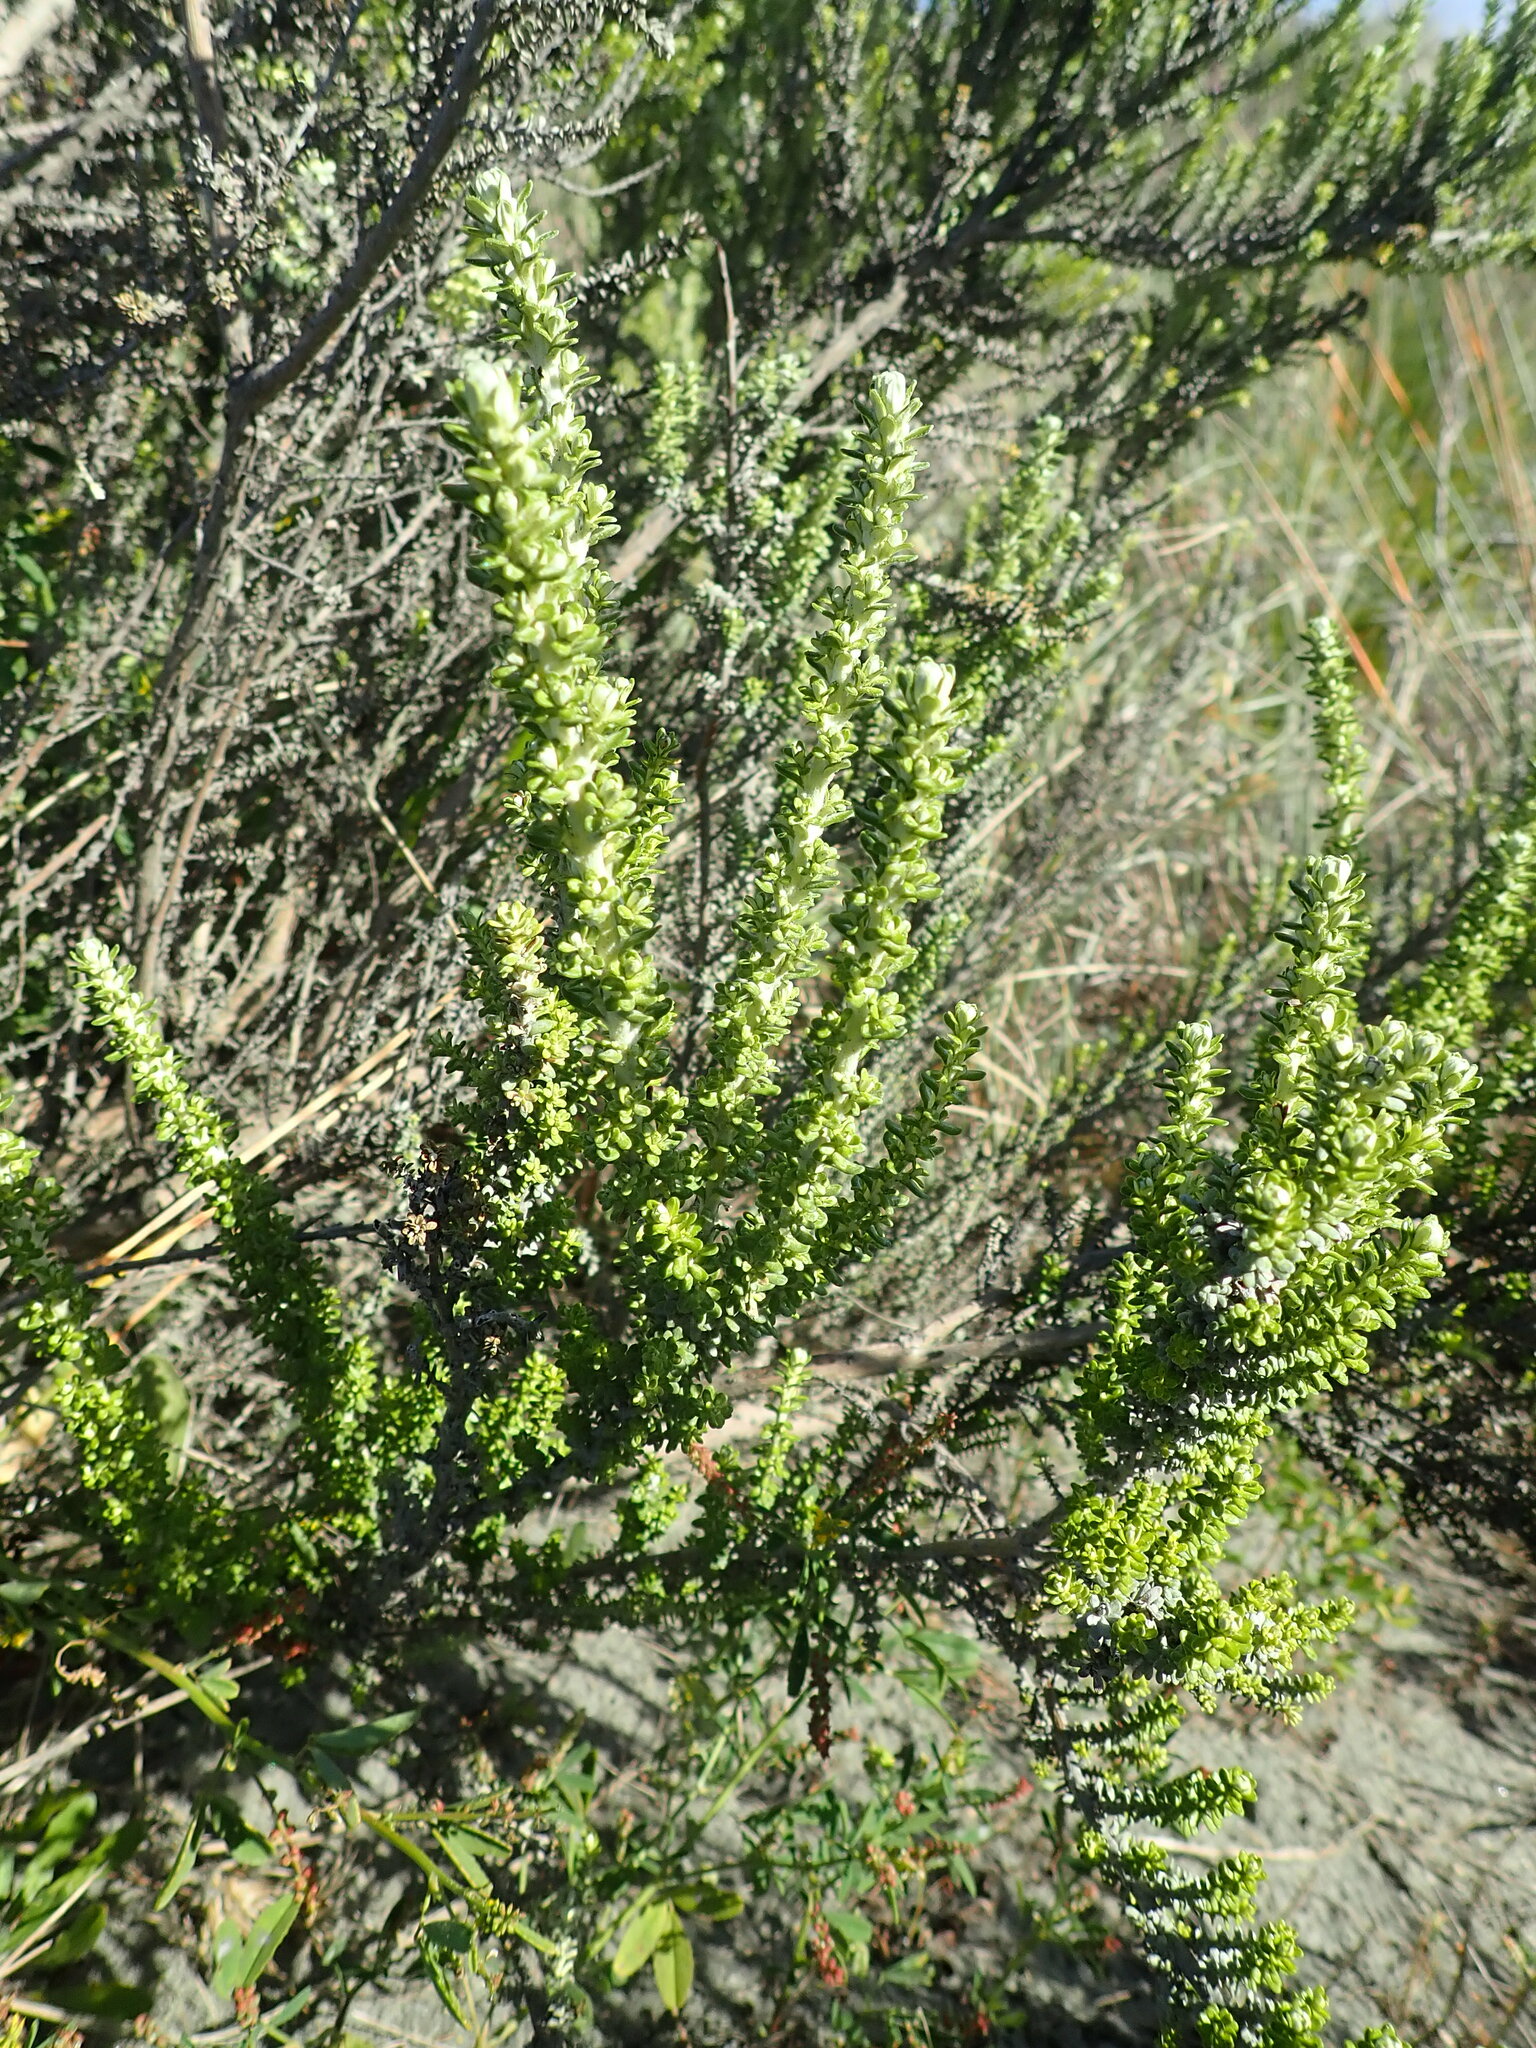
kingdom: Plantae
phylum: Tracheophyta
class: Magnoliopsida
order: Asterales
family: Asteraceae
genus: Ozothamnus
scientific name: Ozothamnus leptophyllus
